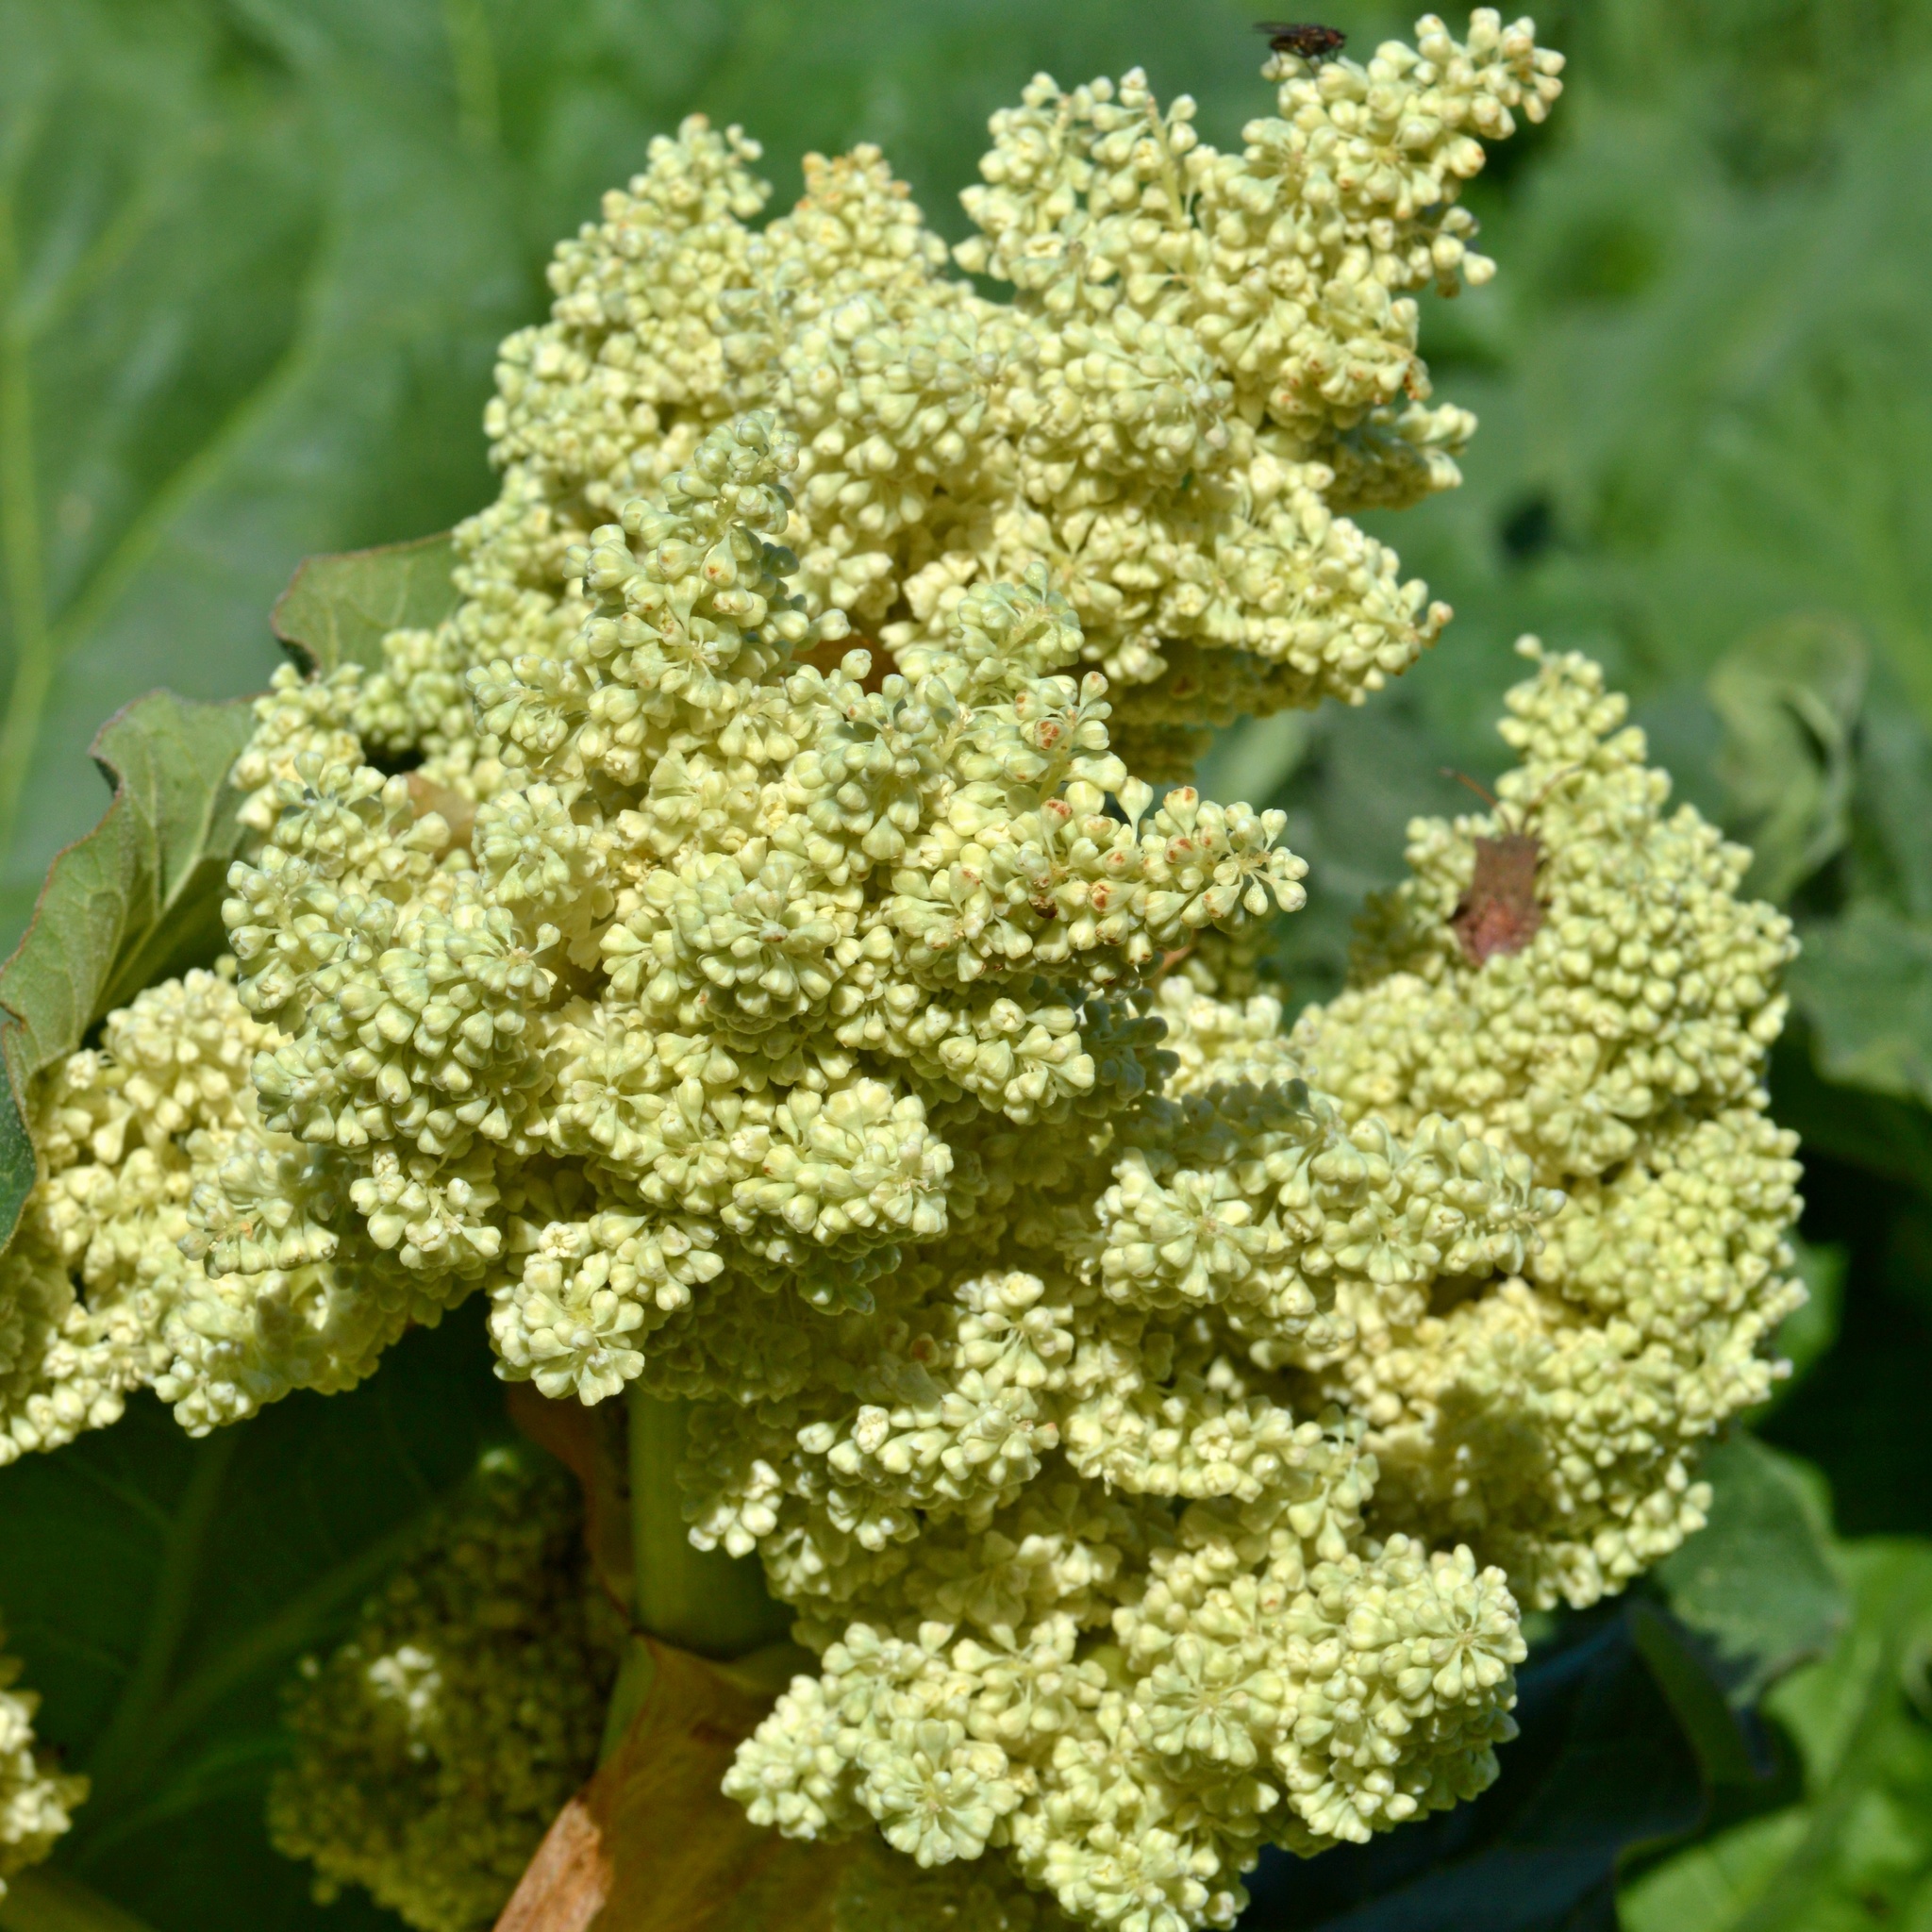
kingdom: Plantae
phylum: Tracheophyta
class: Magnoliopsida
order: Caryophyllales
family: Polygonaceae
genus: Rheum
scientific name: Rheum rhabarbarum
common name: Garden rhubarb
